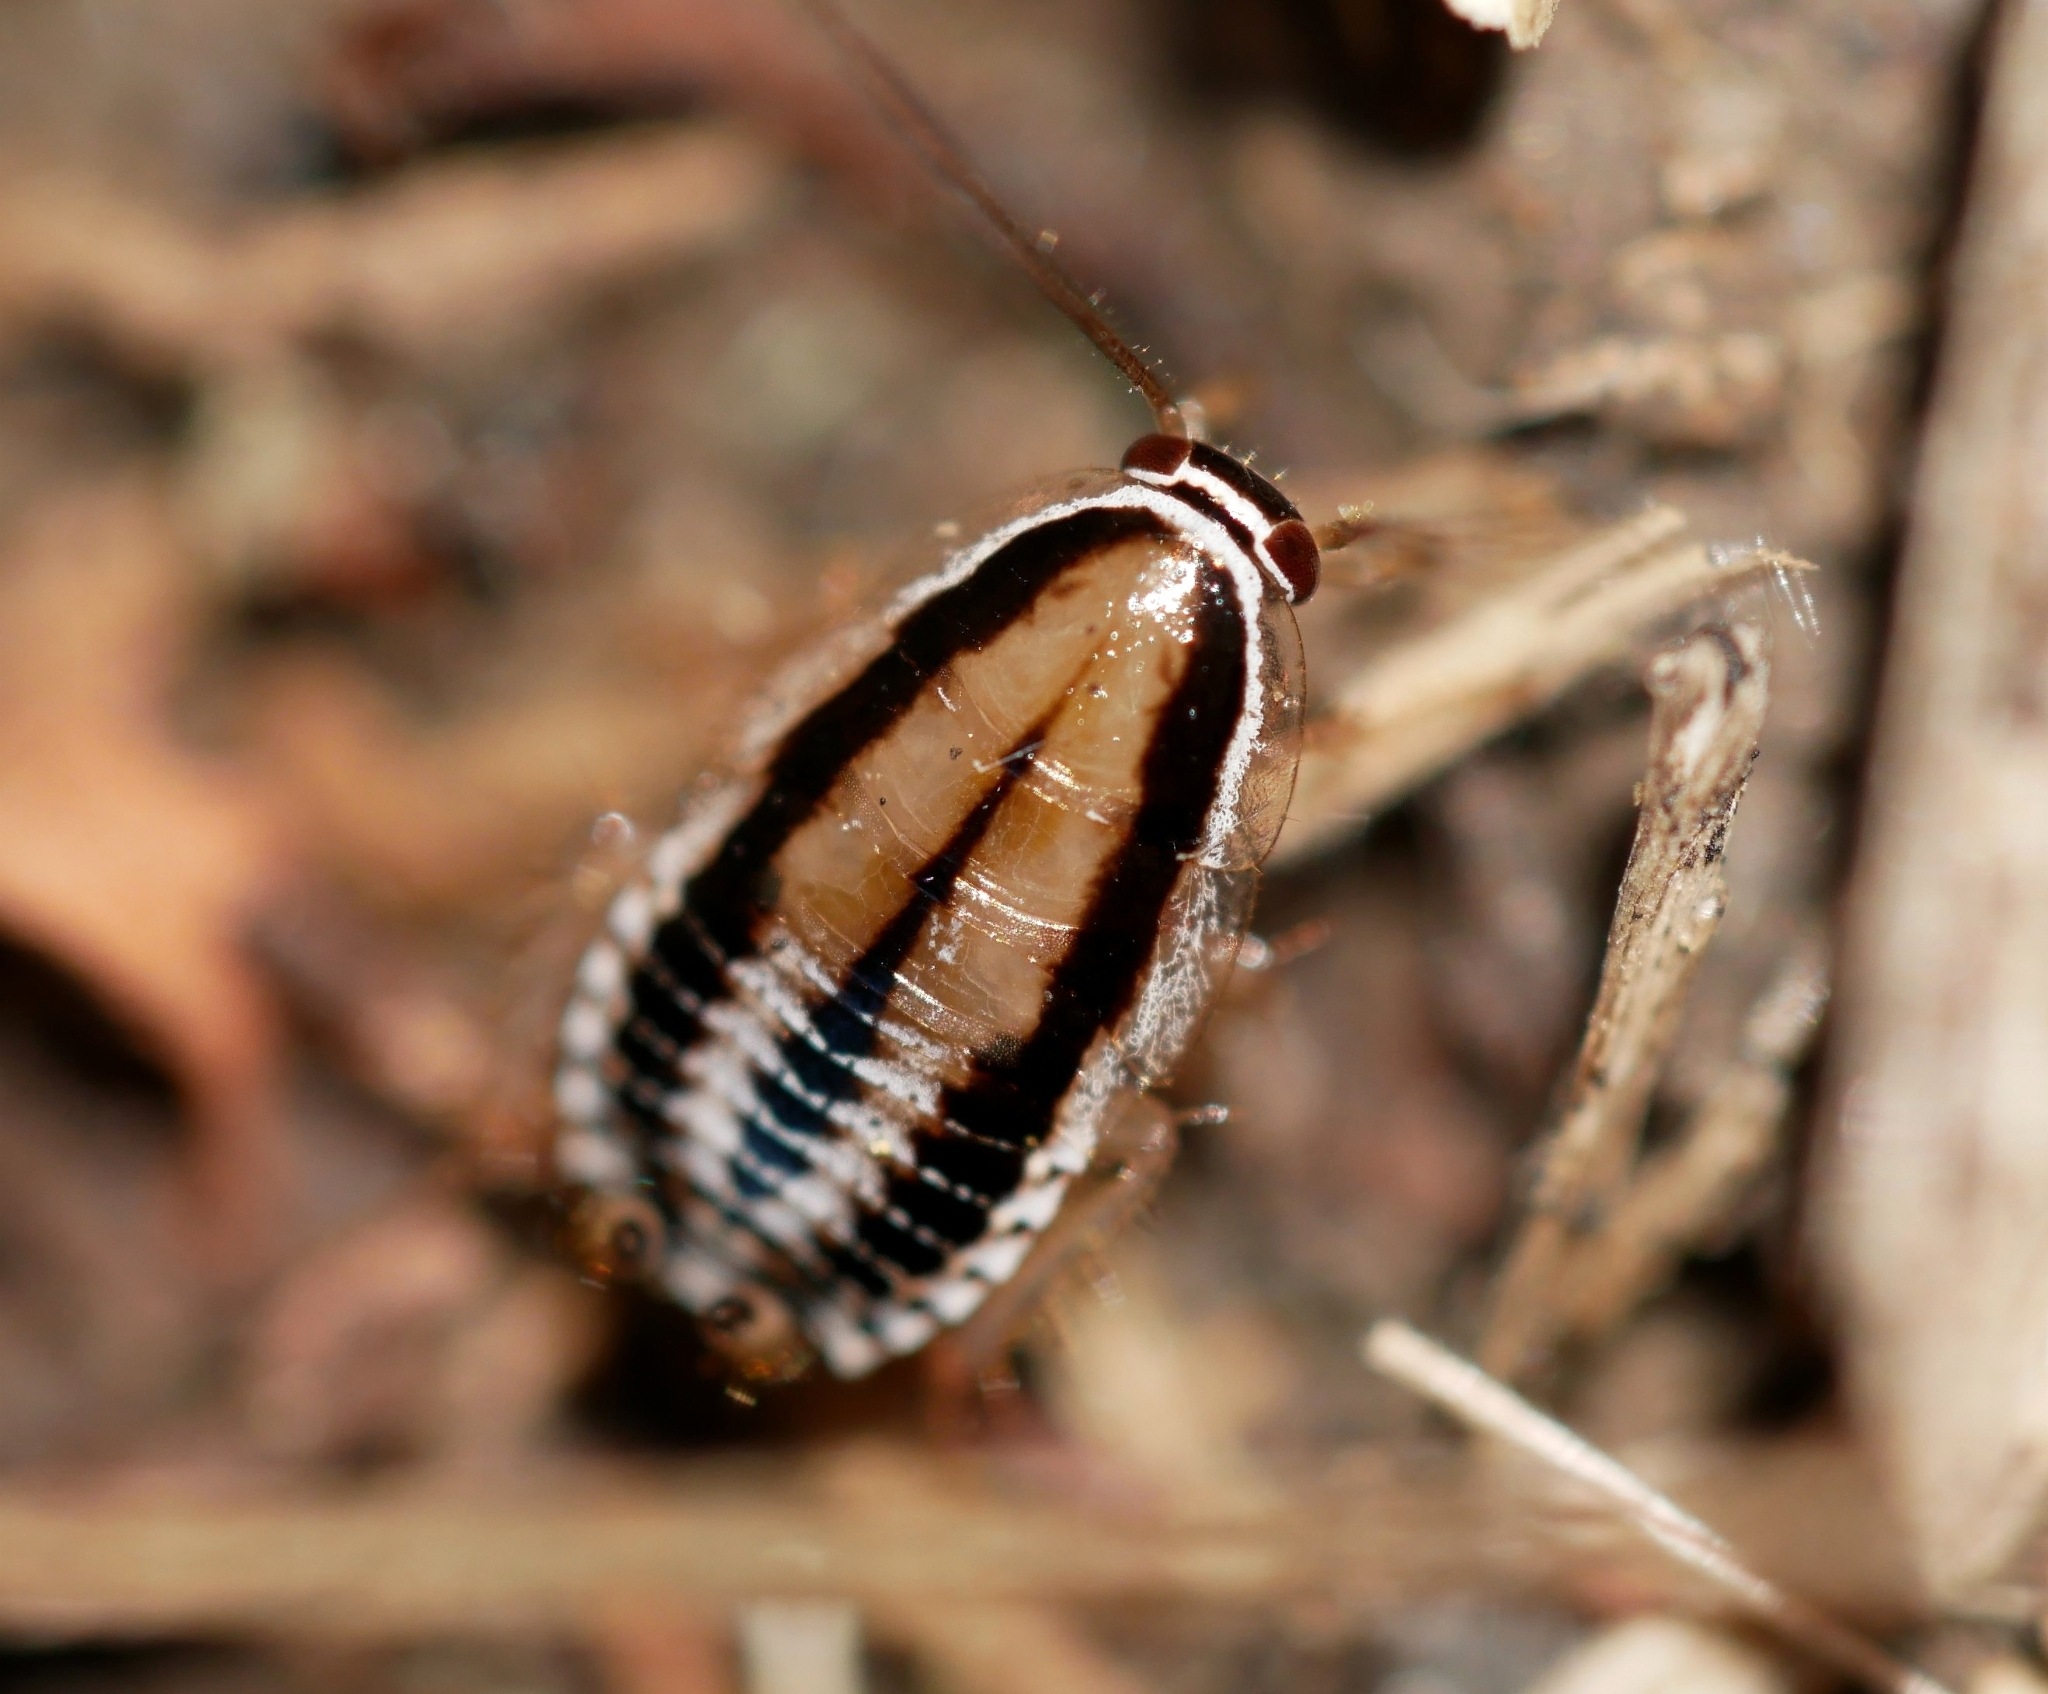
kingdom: Animalia
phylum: Arthropoda
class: Insecta
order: Blattodea
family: Ectobiidae
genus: Luridiblatta
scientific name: Luridiblatta trivittata
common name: Three-lined cockroach
